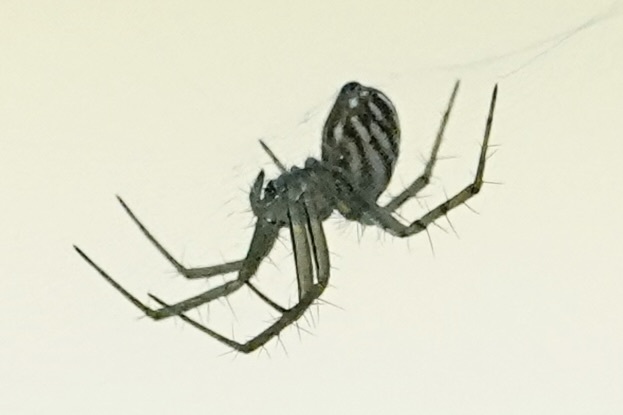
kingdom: Animalia
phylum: Arthropoda
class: Arachnida
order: Araneae
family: Araneidae
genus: Mangora
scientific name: Mangora gibberosa
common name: Lined orbweaver
